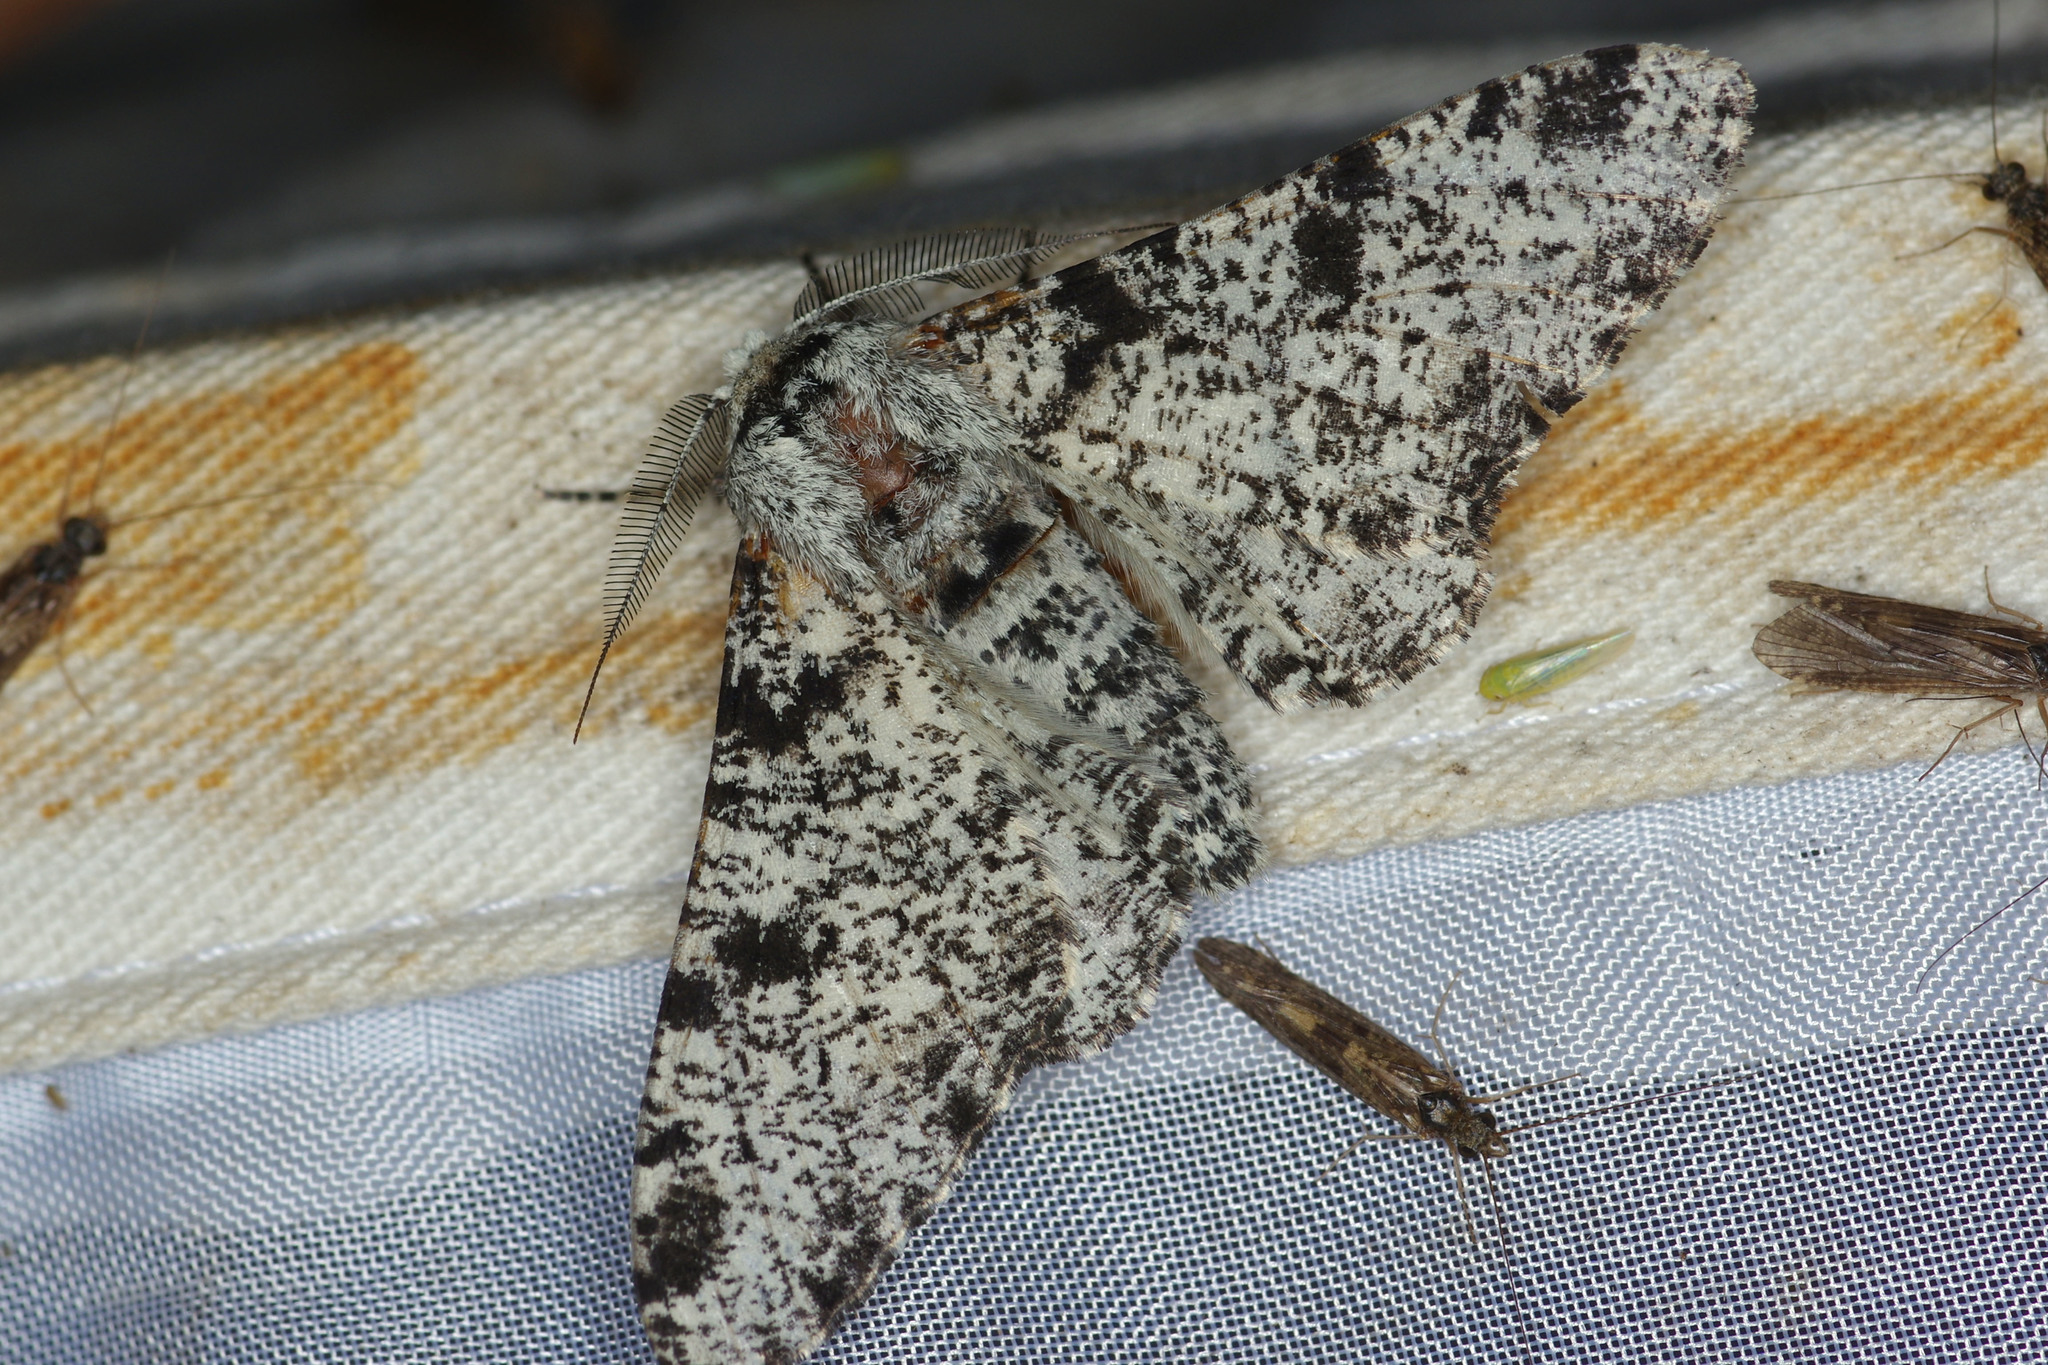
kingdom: Animalia
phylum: Arthropoda
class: Insecta
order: Lepidoptera
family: Geometridae
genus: Biston
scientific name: Biston betularia
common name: Peppered moth
